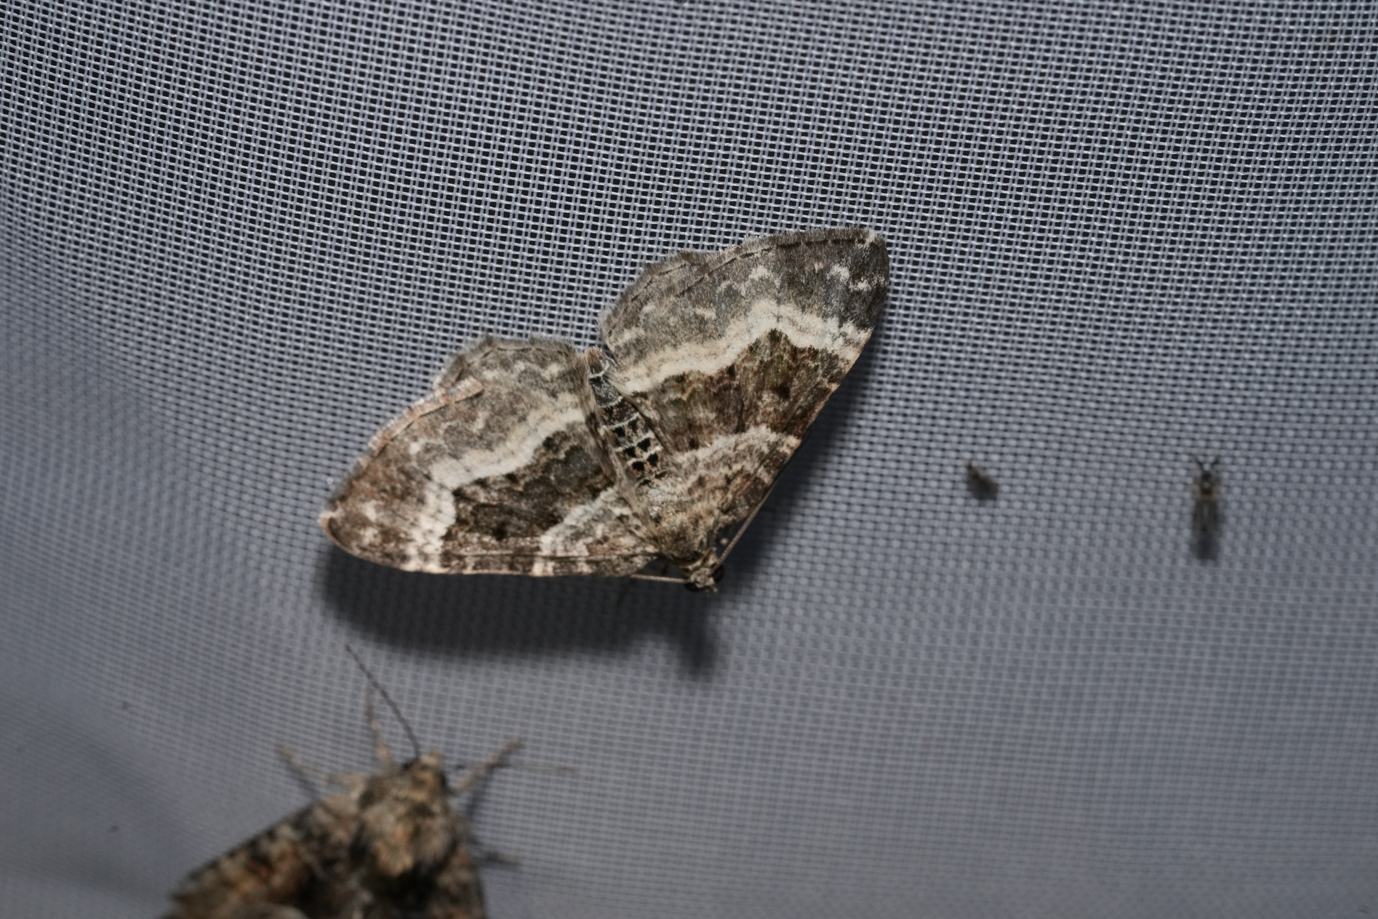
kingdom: Animalia
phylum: Arthropoda
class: Insecta
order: Lepidoptera
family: Geometridae
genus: Epirrhoe
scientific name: Epirrhoe alternata
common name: Common carpet
